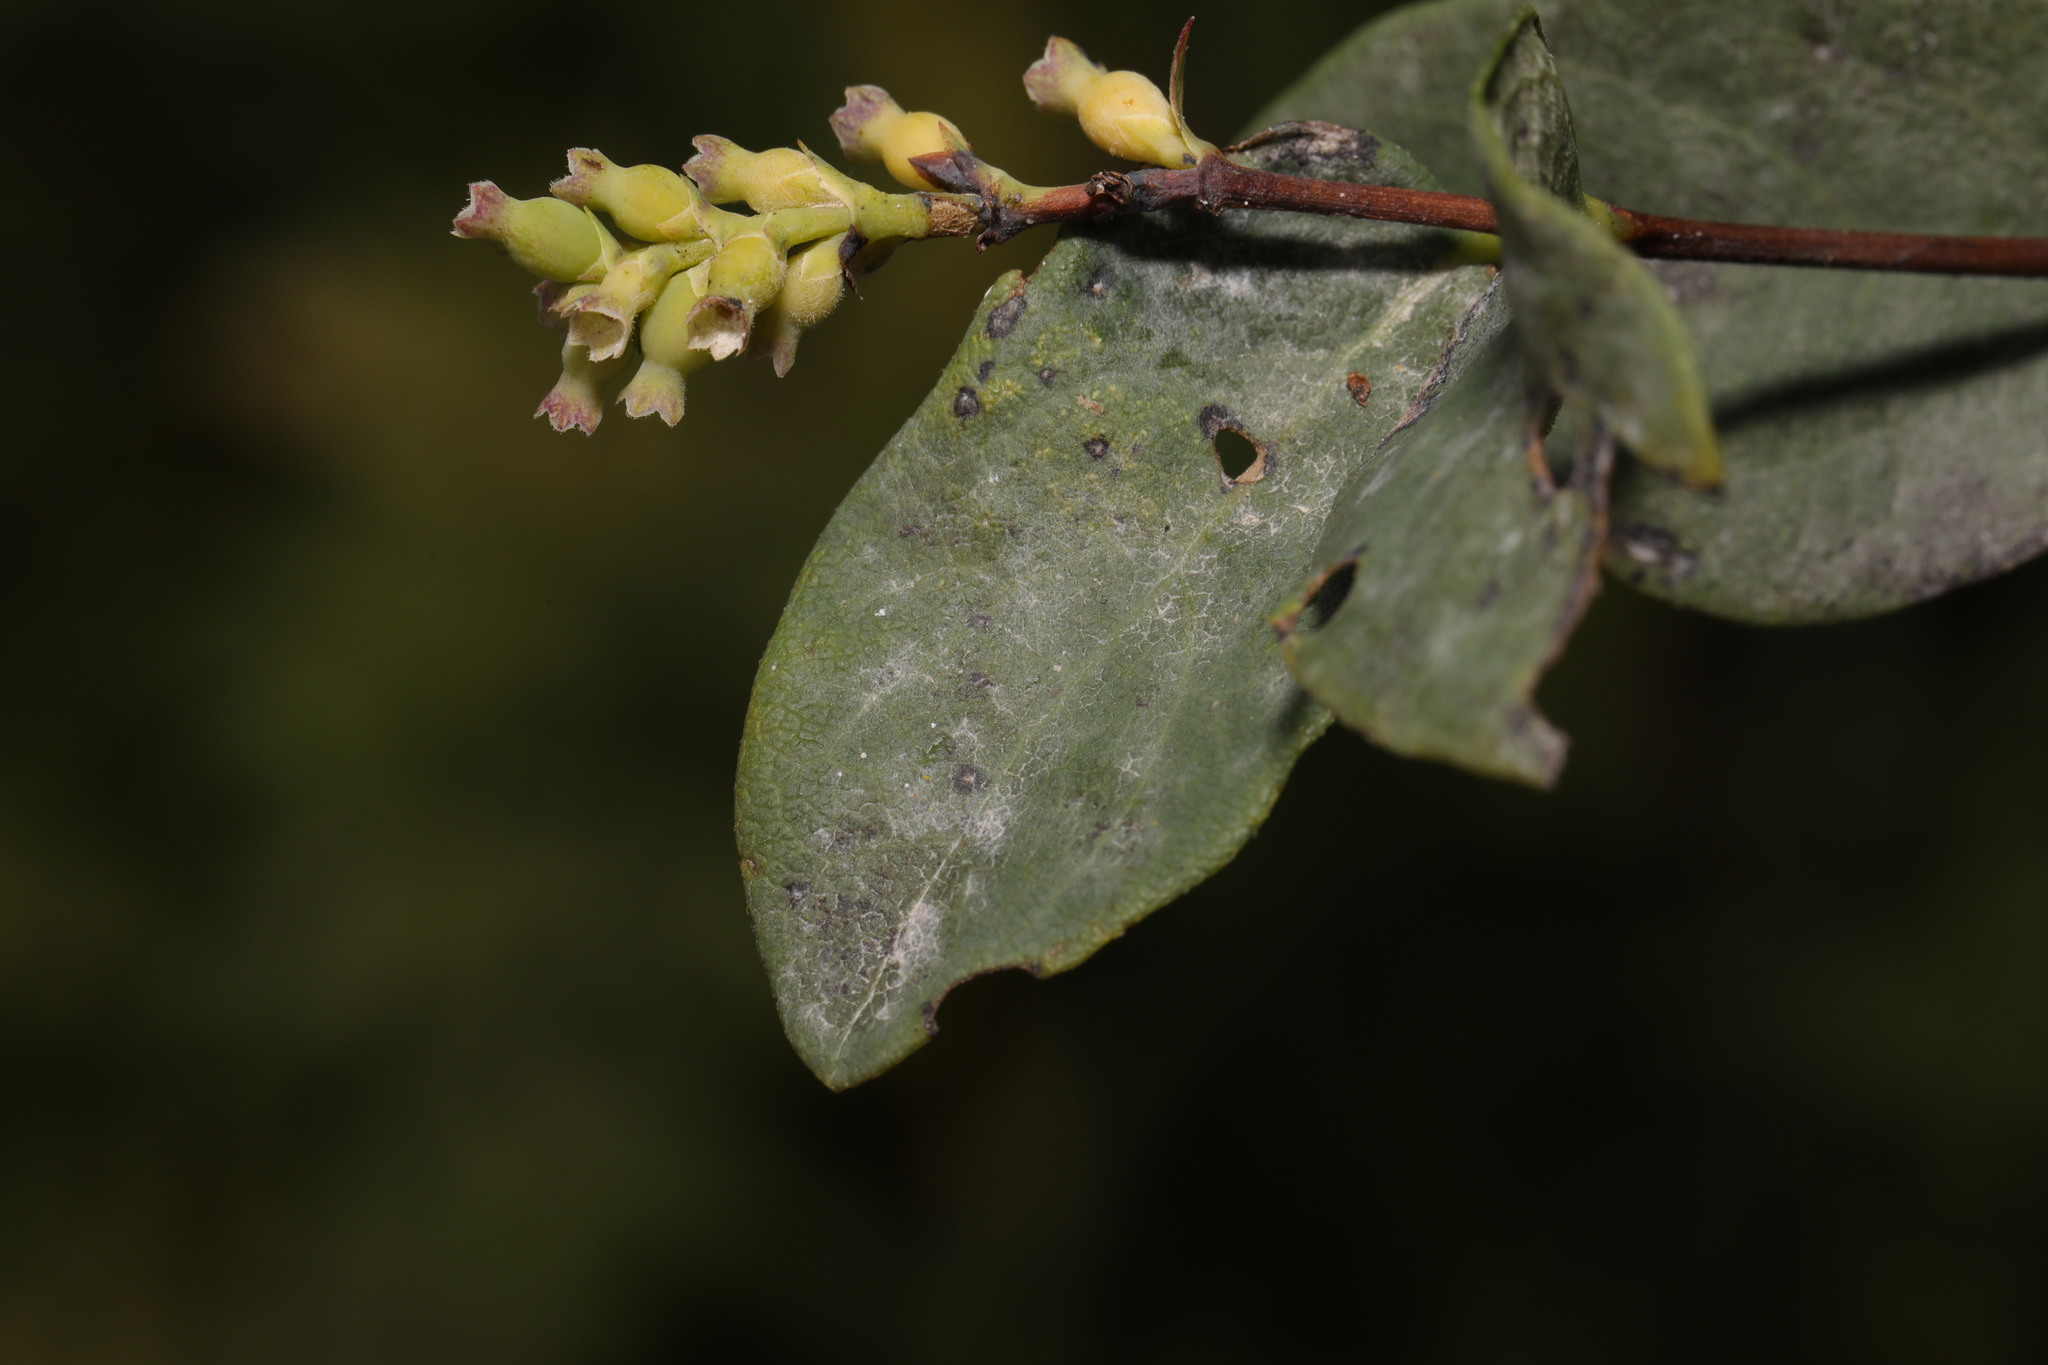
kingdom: Fungi
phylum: Ascomycota
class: Leotiomycetes
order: Helotiales
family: Erysiphaceae
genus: Erysiphe
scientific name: Erysiphe symphoricarpi
